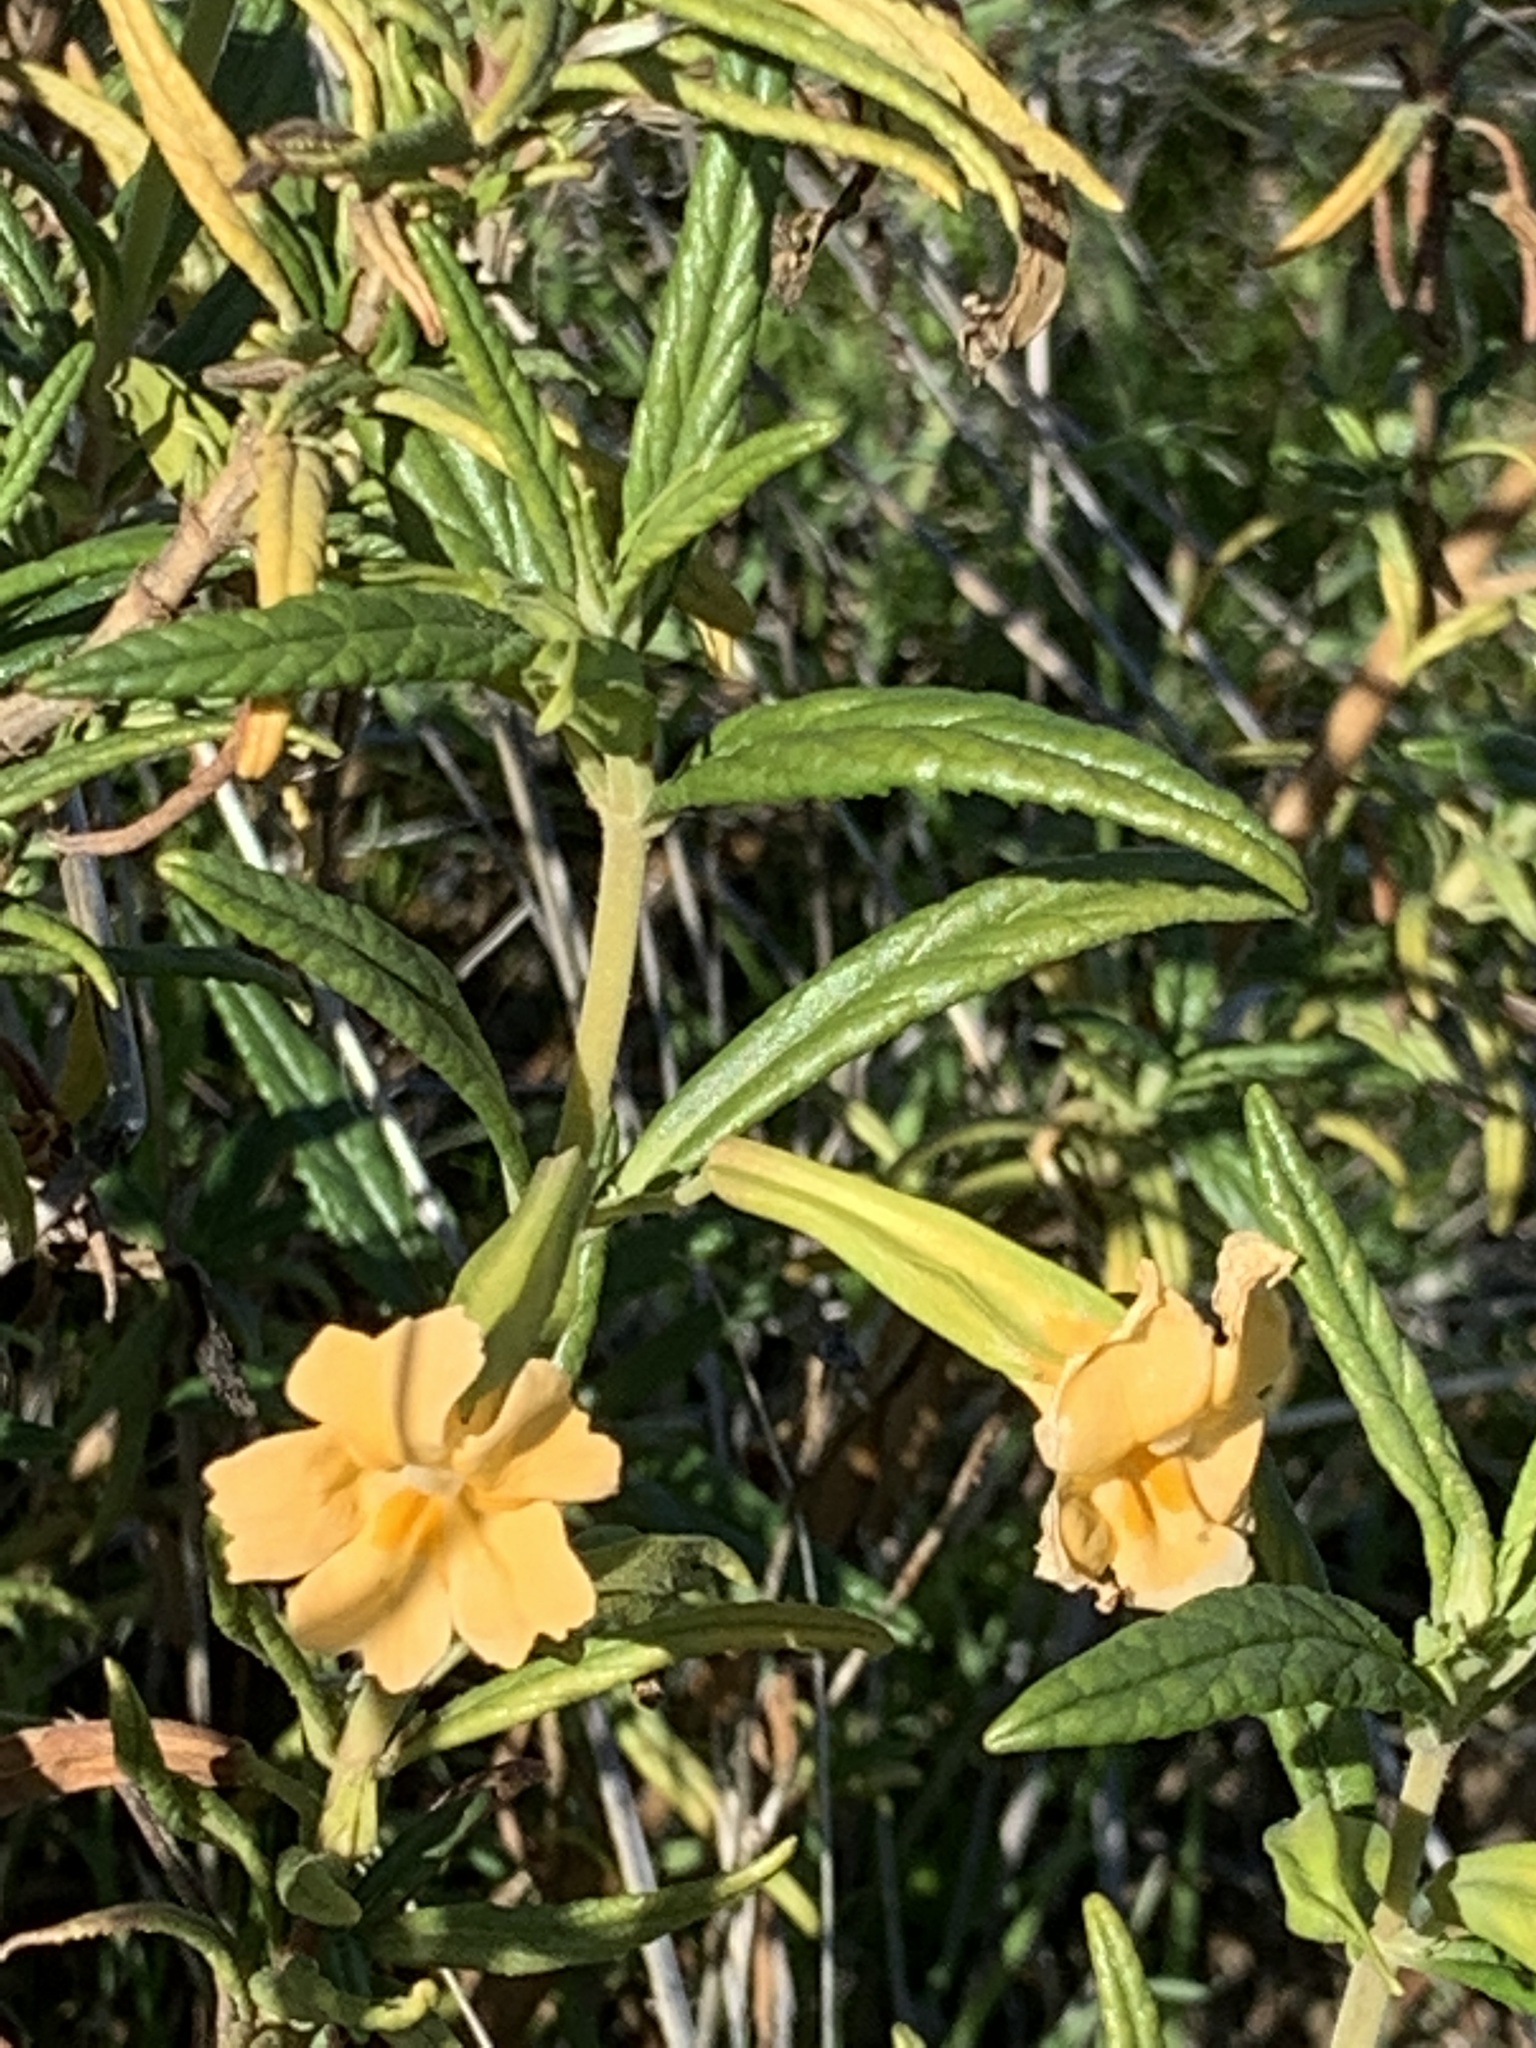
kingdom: Plantae
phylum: Tracheophyta
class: Magnoliopsida
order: Lamiales
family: Phrymaceae
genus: Diplacus
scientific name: Diplacus aurantiacus
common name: Bush monkey-flower
